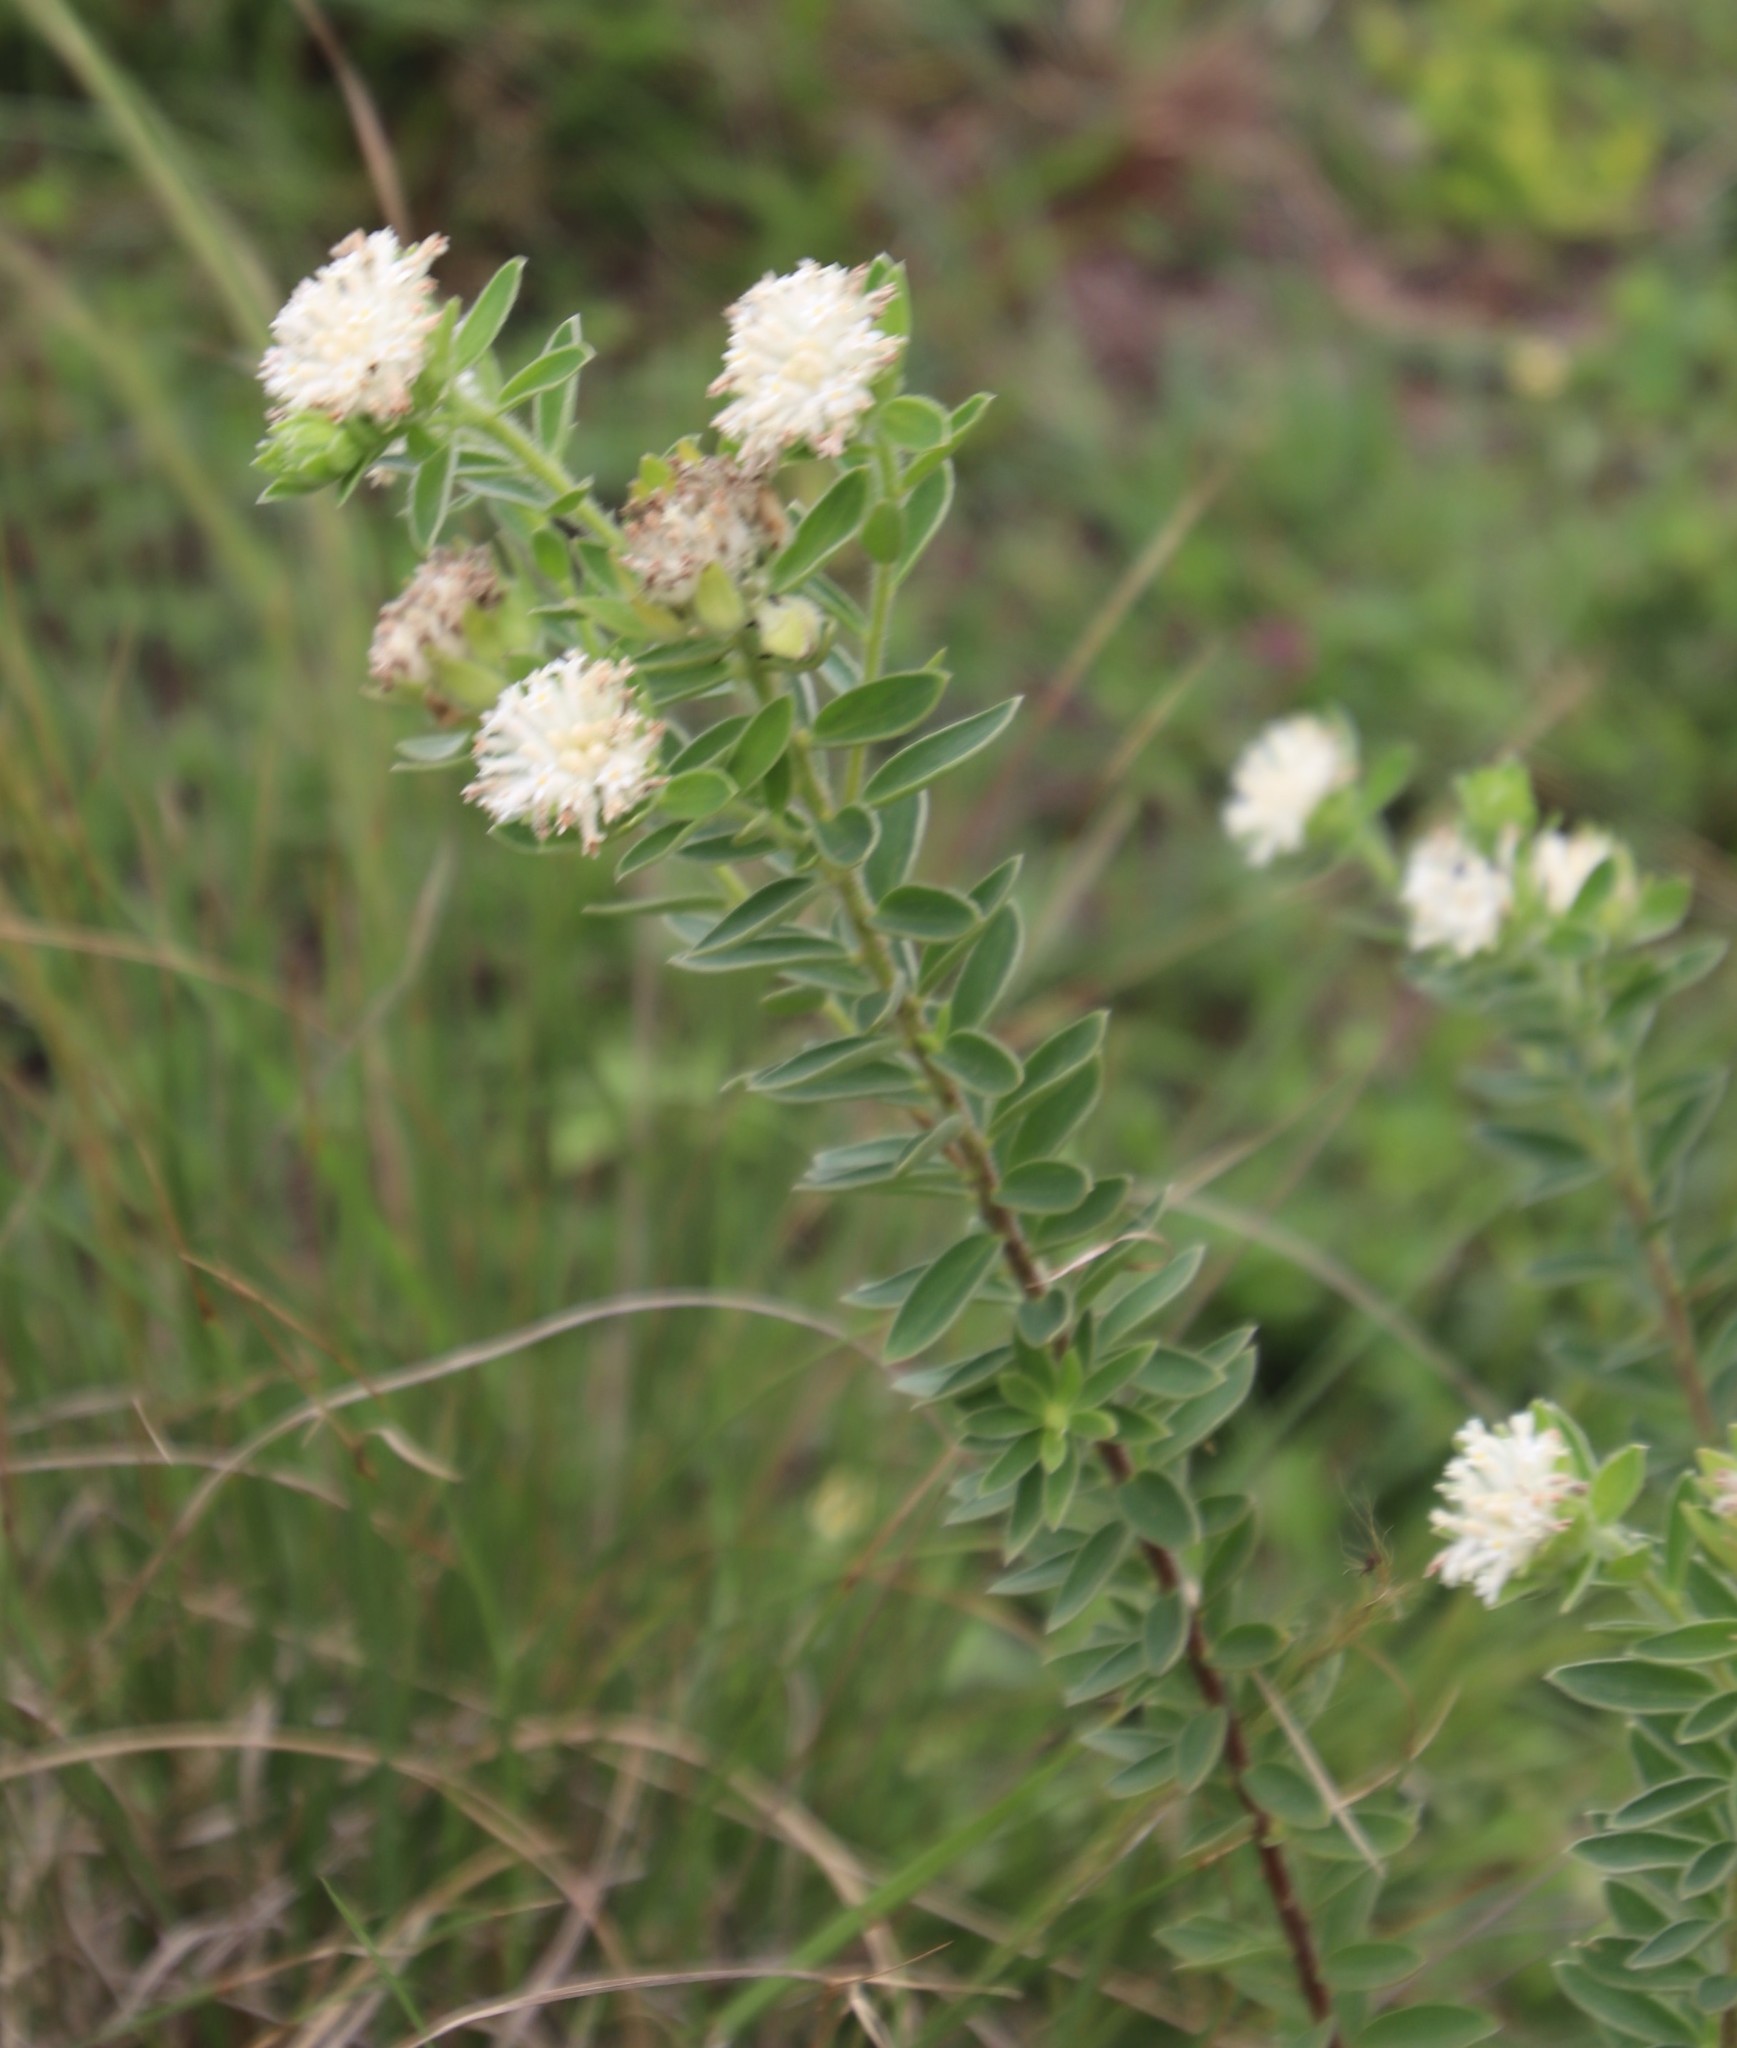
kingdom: Plantae
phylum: Tracheophyta
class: Magnoliopsida
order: Malvales
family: Thymelaeaceae
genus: Gnidia
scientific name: Gnidia calocephala
